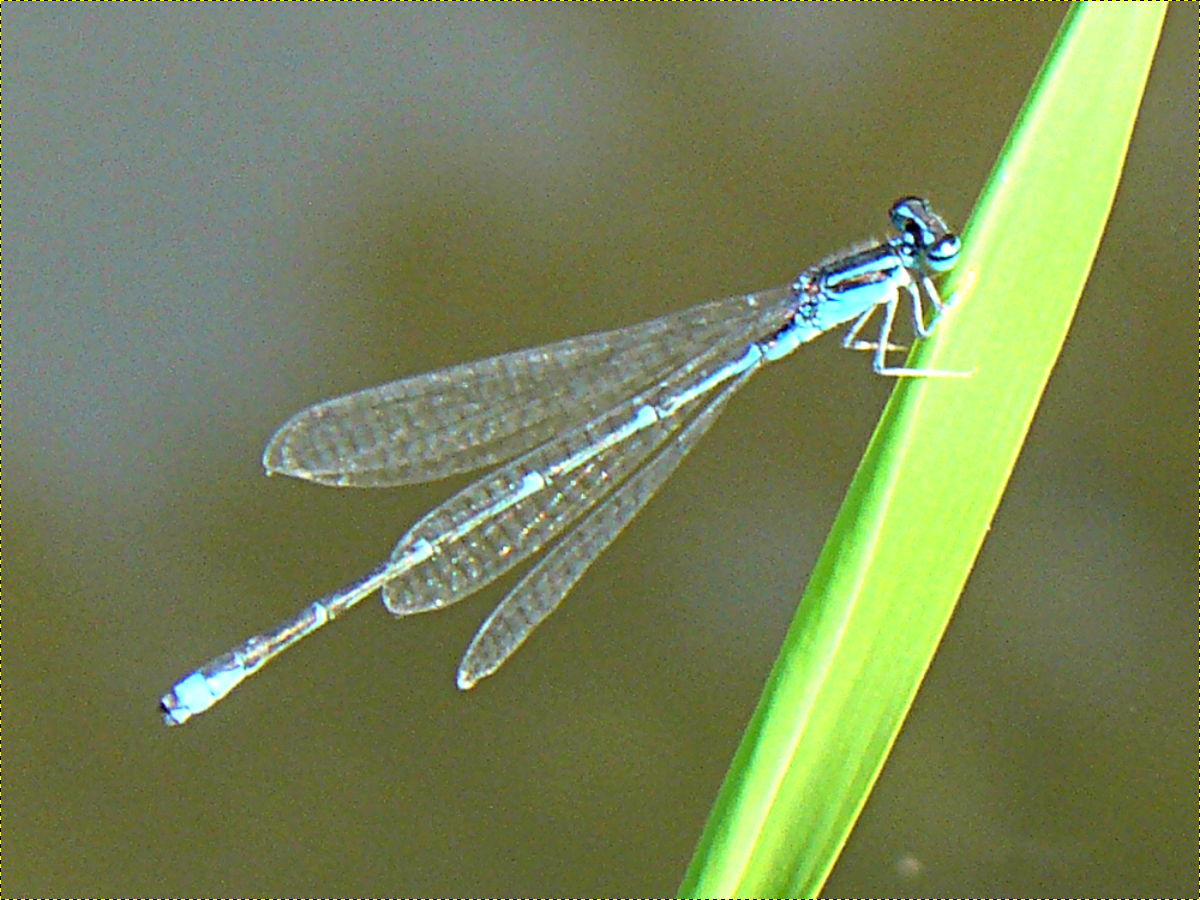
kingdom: Animalia
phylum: Arthropoda
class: Insecta
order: Odonata
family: Coenagrionidae
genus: Enallagma
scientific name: Enallagma exsulans
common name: Stream bluet
